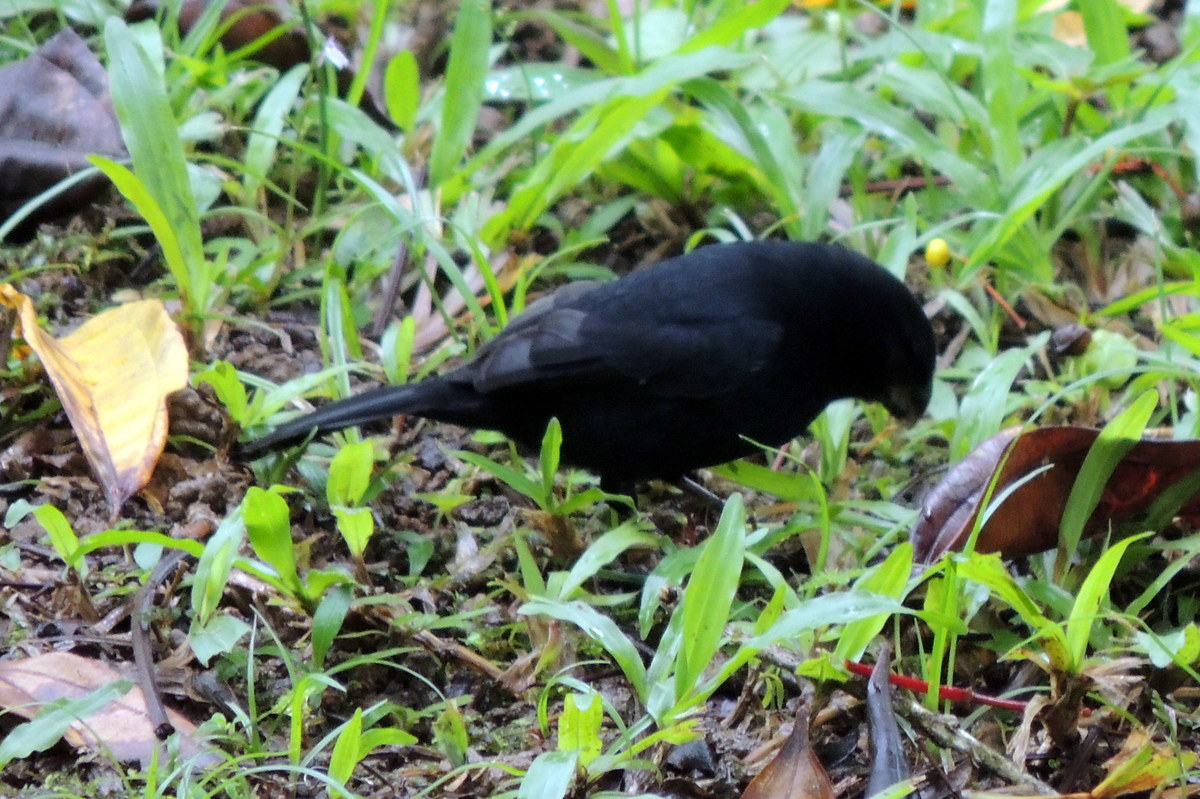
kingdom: Animalia
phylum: Chordata
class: Aves
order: Passeriformes
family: Thraupidae
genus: Sporophila
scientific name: Sporophila corvina
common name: Variable seedeater
